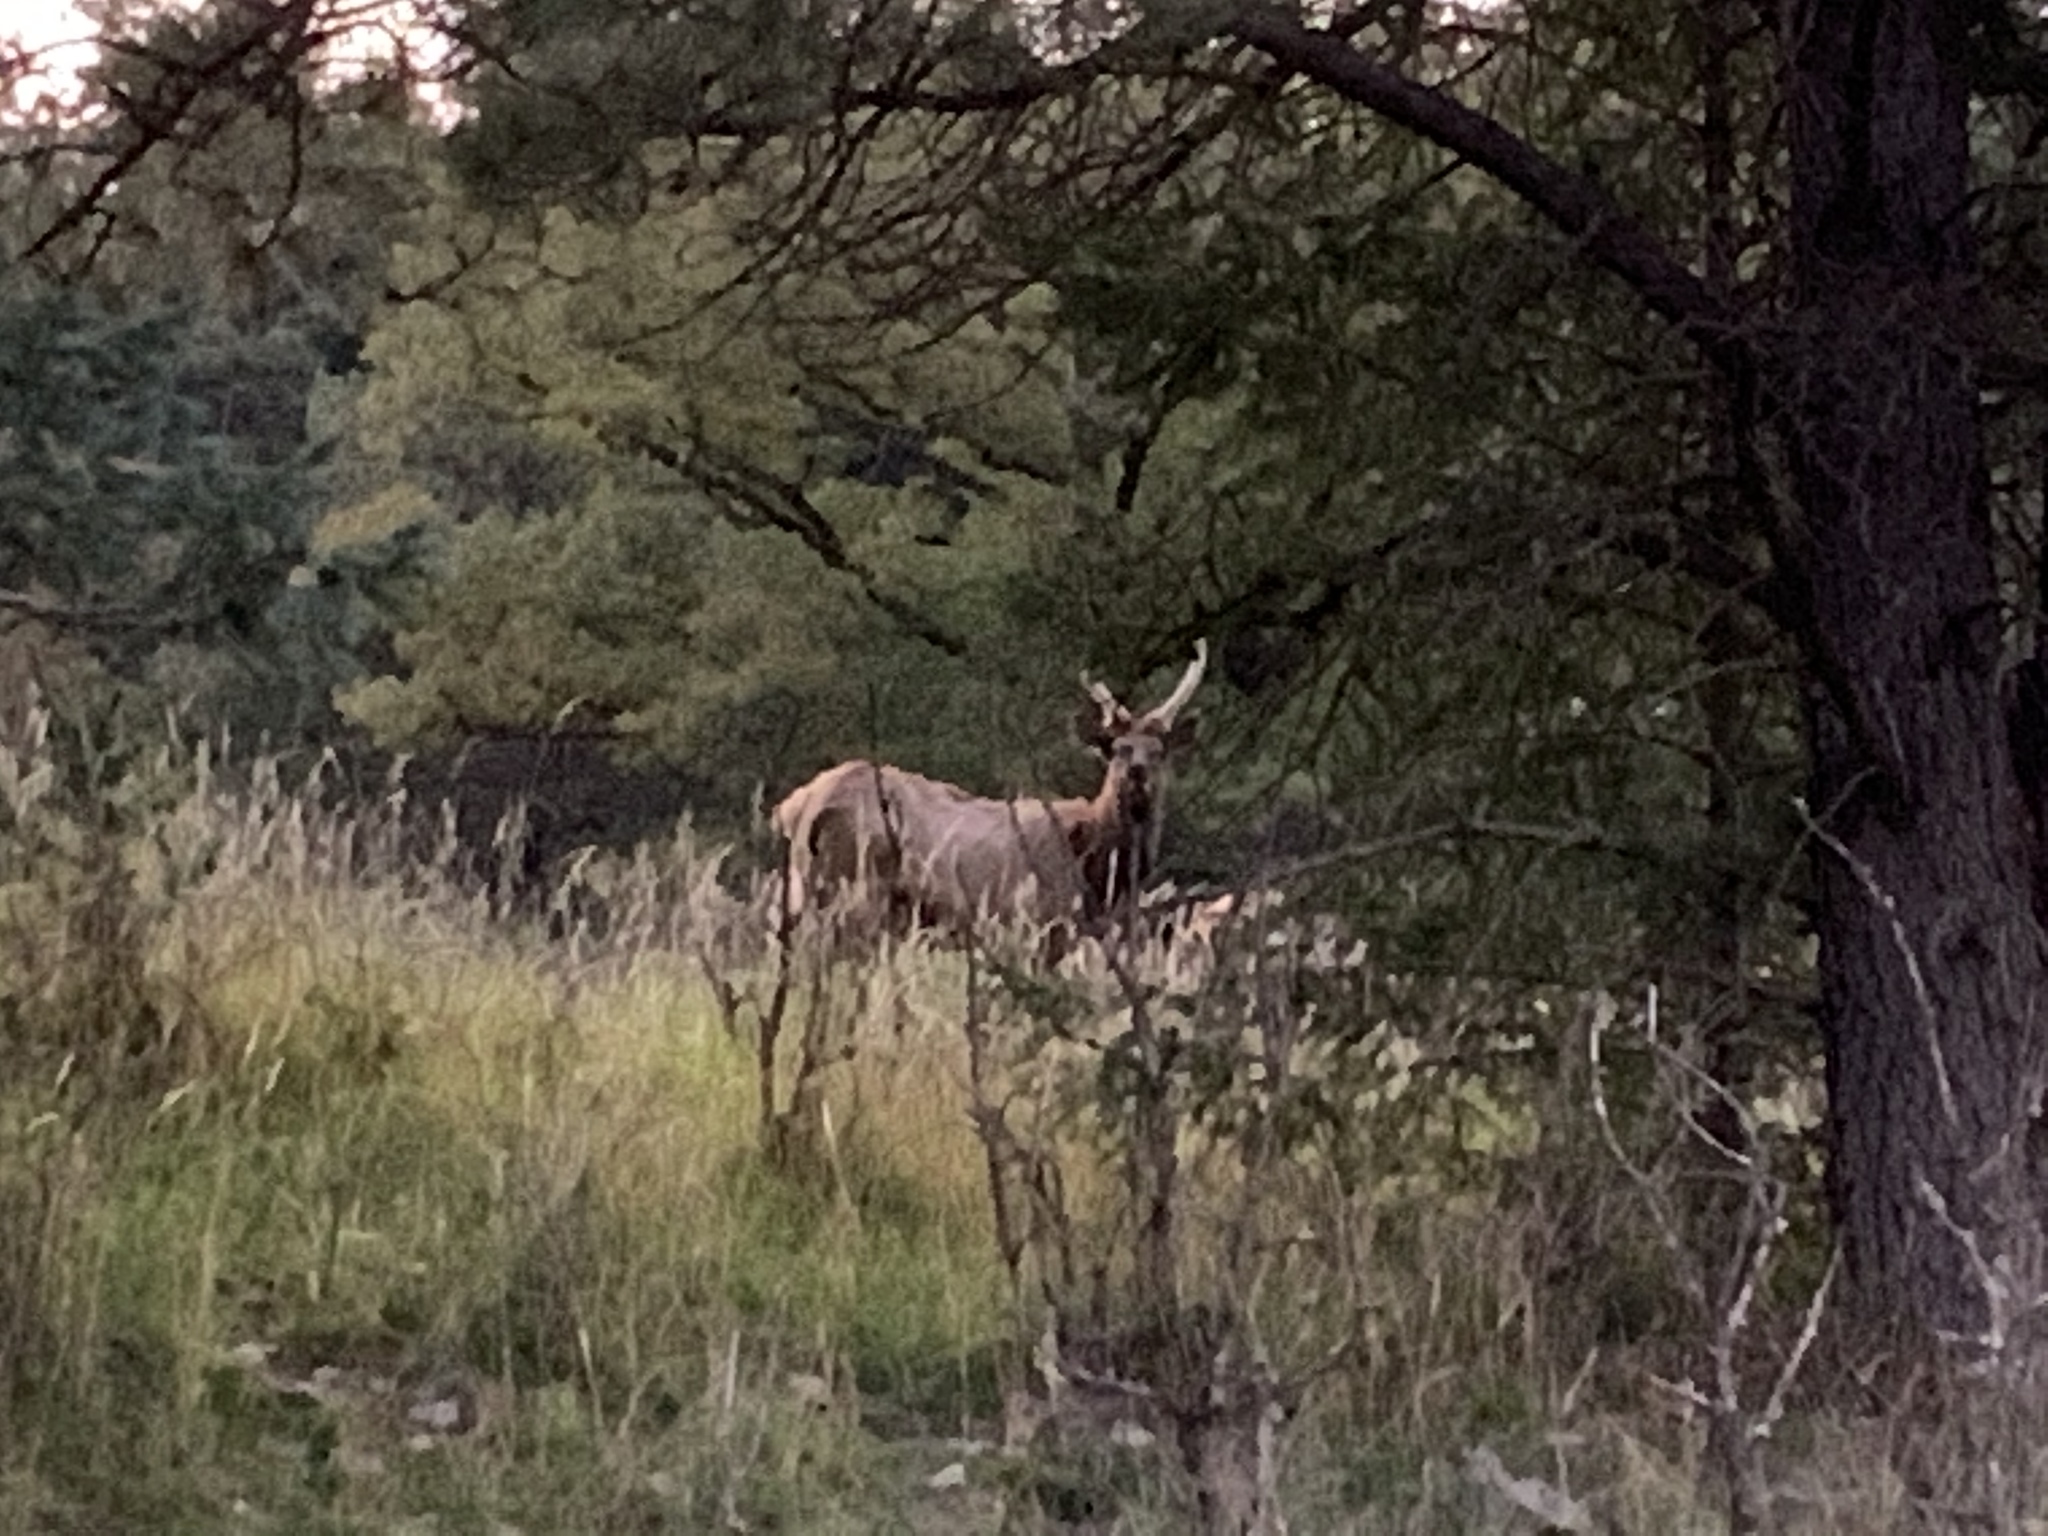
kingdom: Animalia
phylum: Chordata
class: Mammalia
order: Artiodactyla
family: Cervidae
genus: Cervus
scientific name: Cervus elaphus
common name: Red deer
